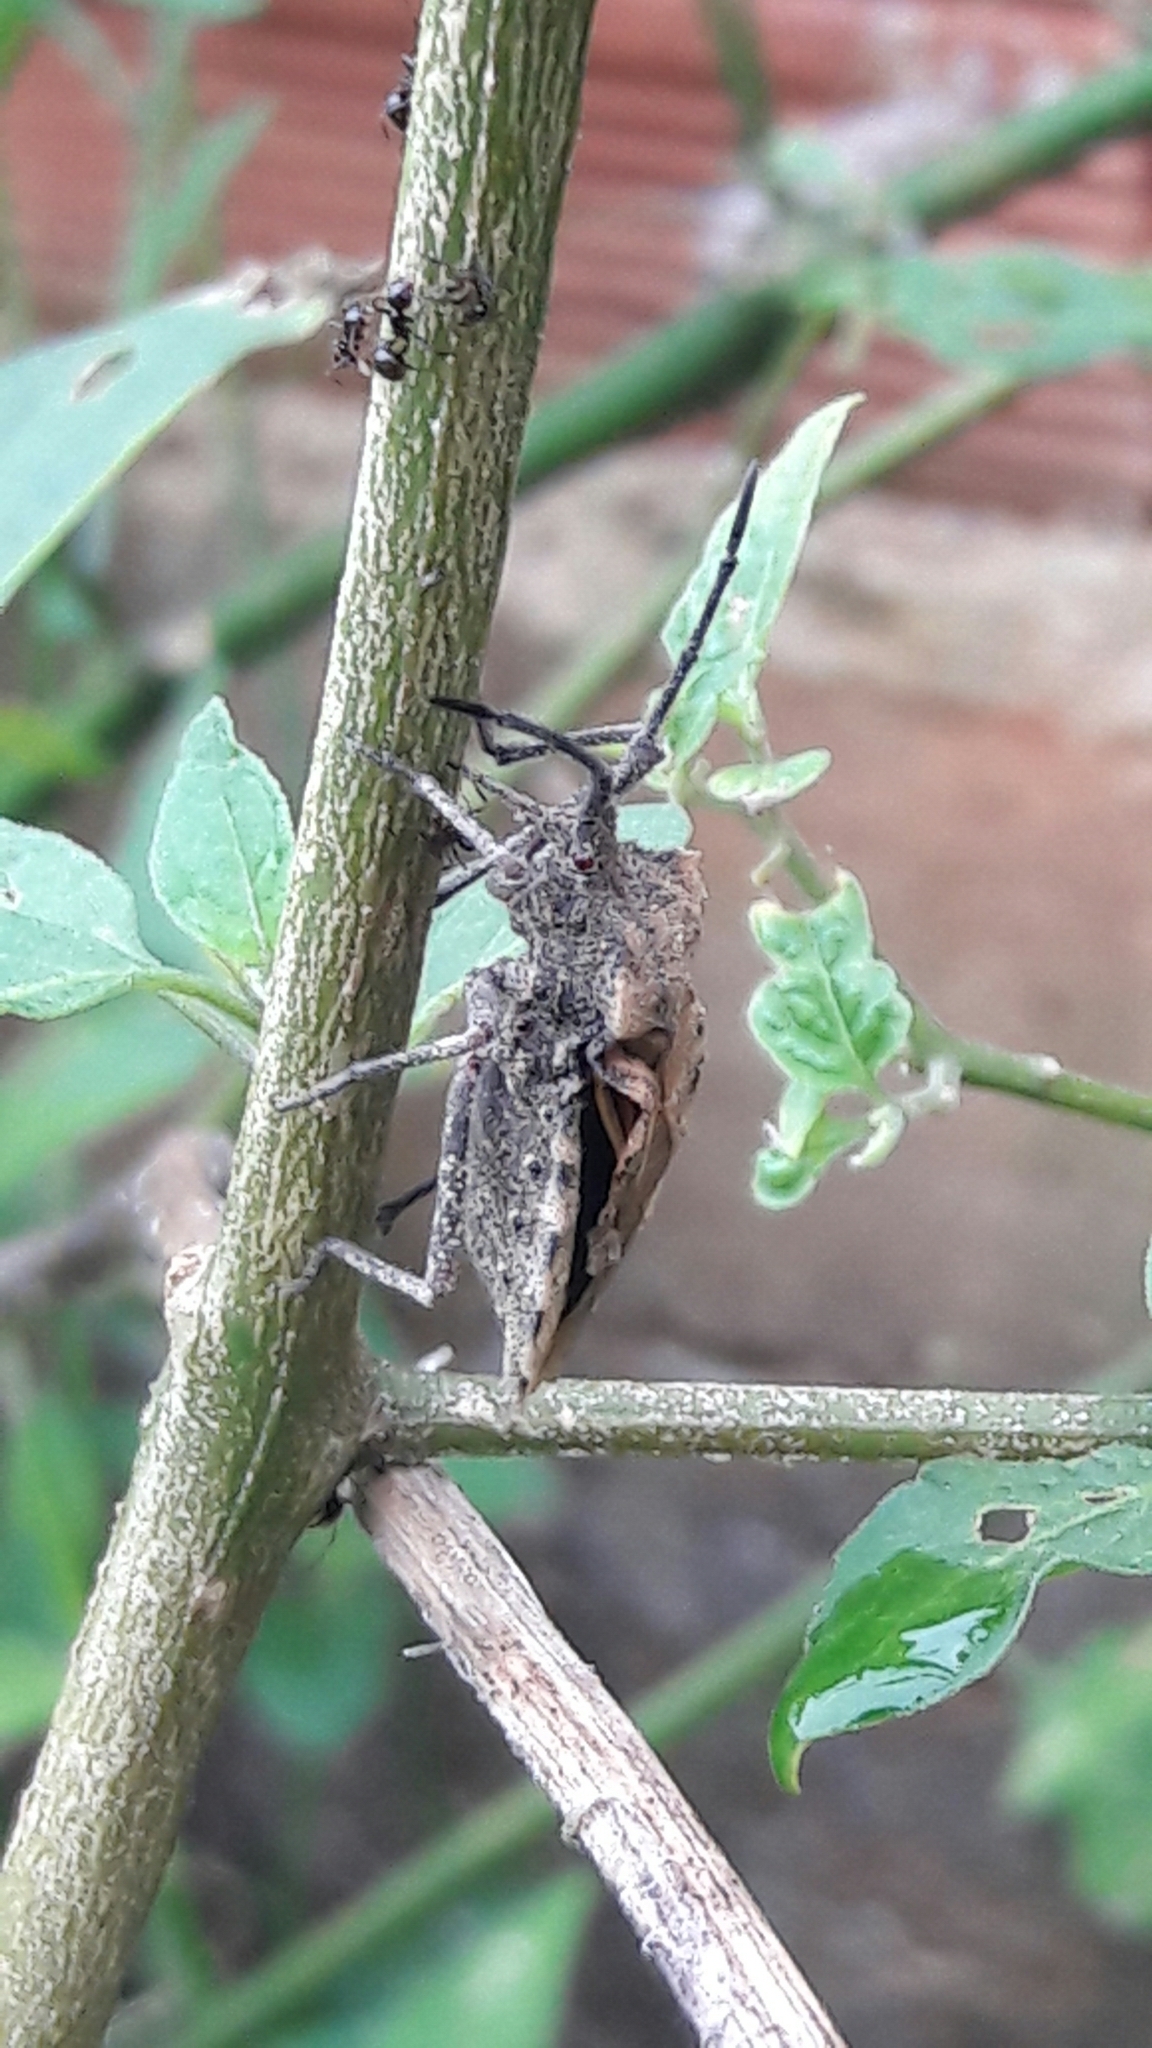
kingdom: Animalia
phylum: Arthropoda
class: Insecta
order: Hemiptera
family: Coreidae
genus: Spartocera
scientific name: Spartocera fusca
